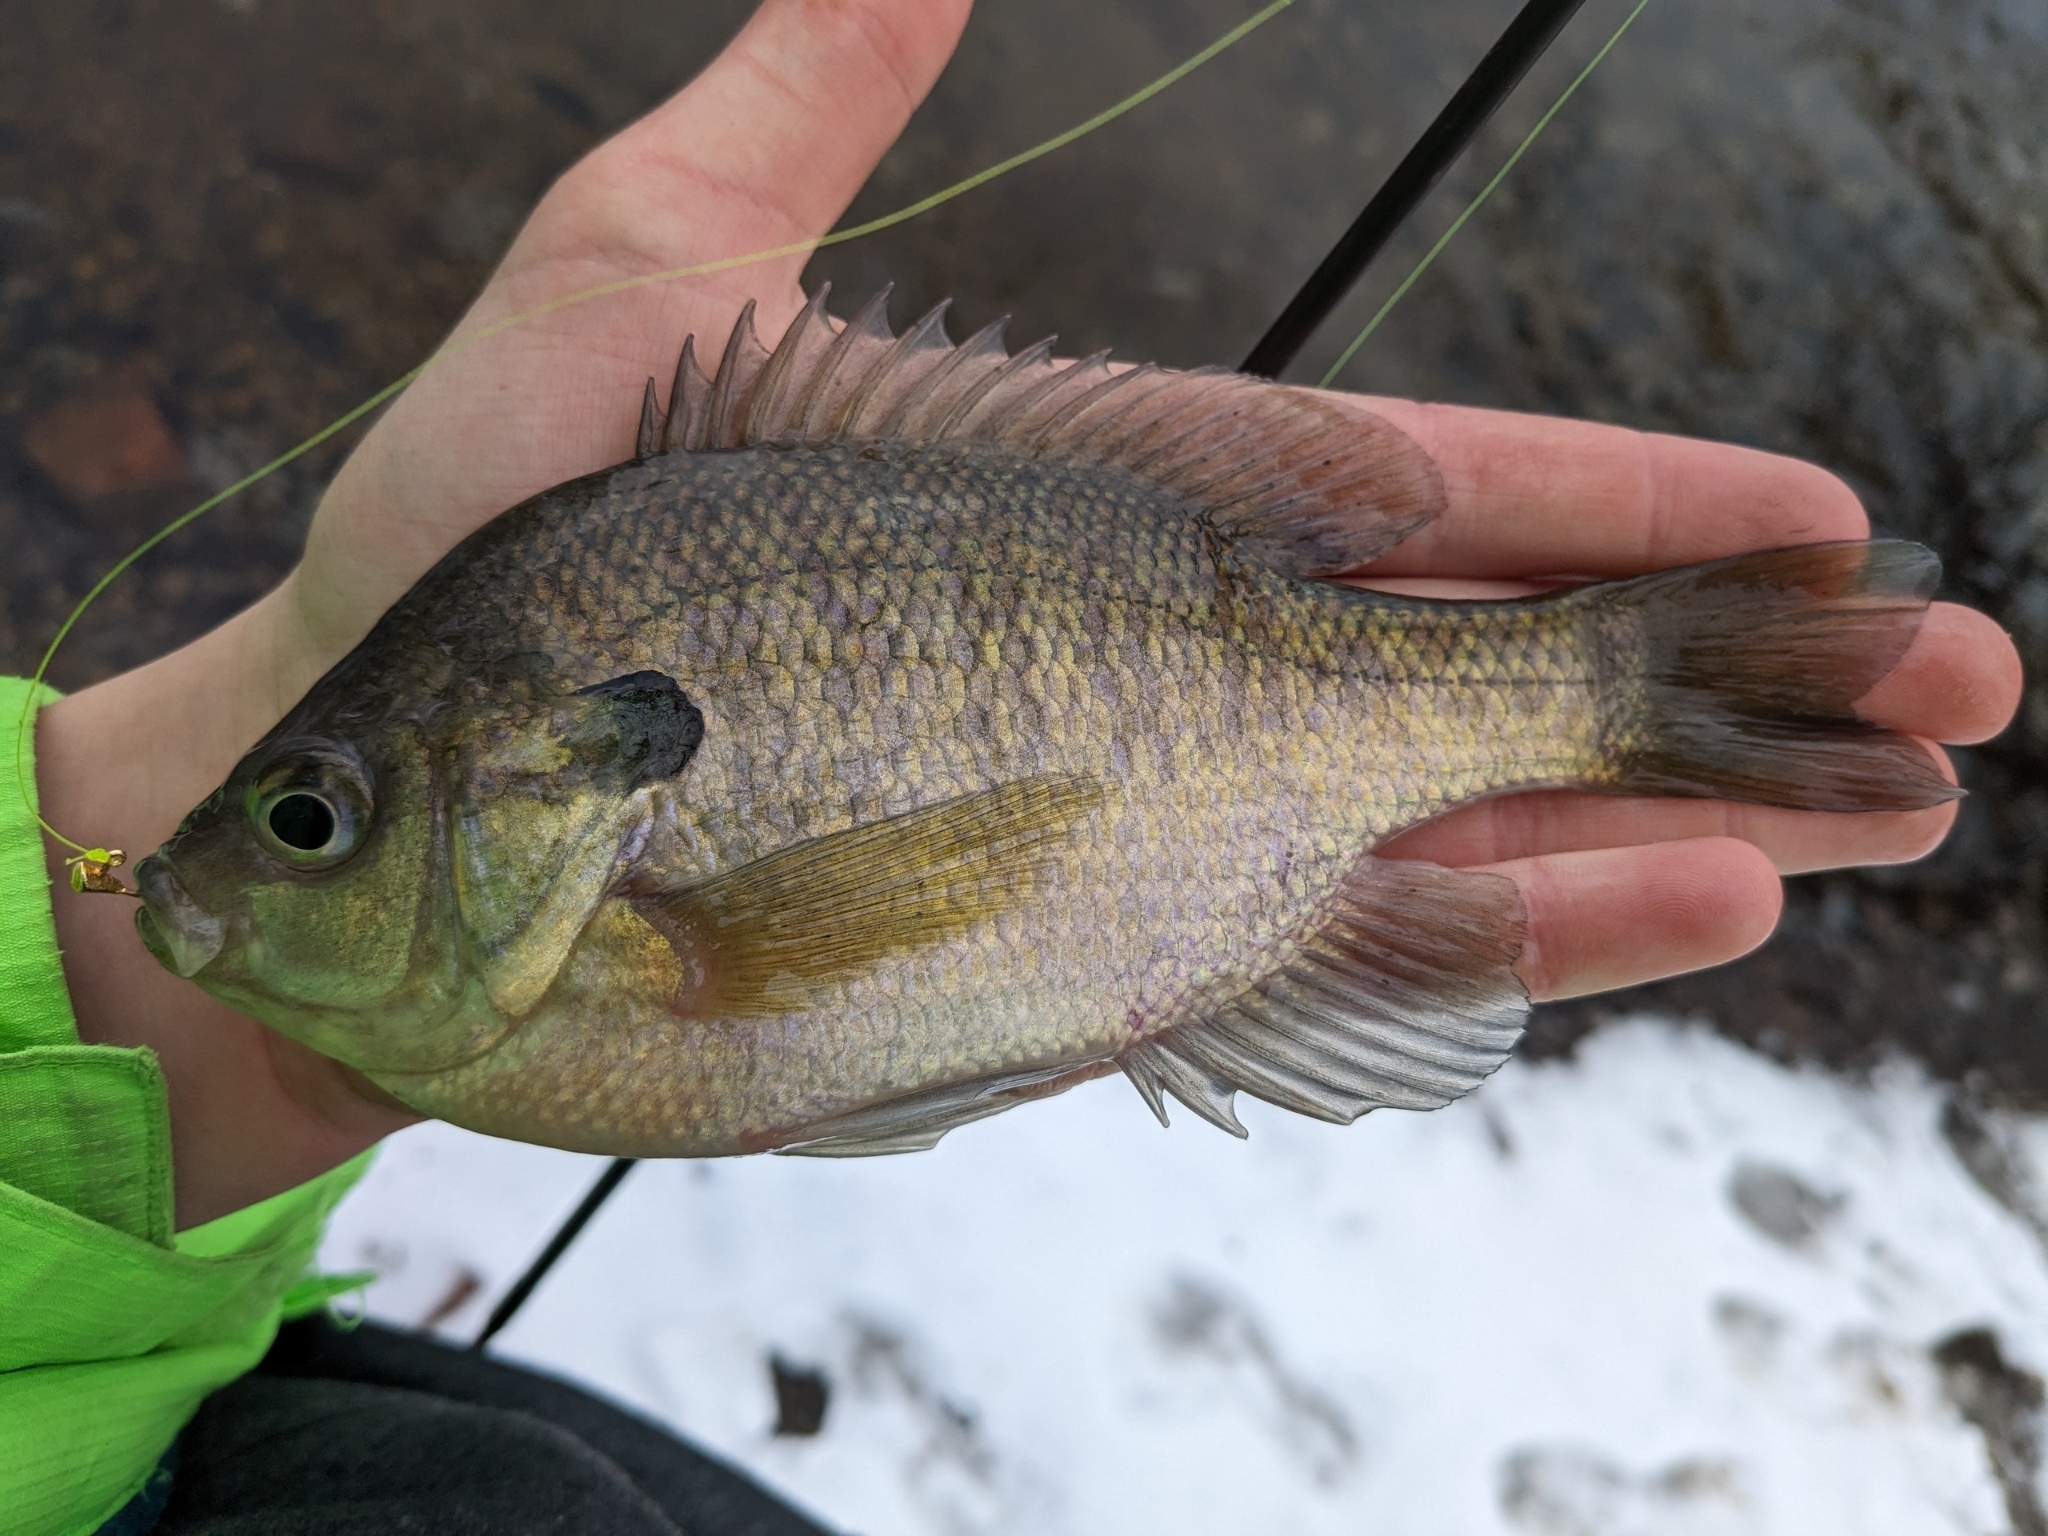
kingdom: Animalia
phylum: Chordata
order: Perciformes
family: Centrarchidae
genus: Lepomis
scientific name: Lepomis macrochirus
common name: Bluegill
